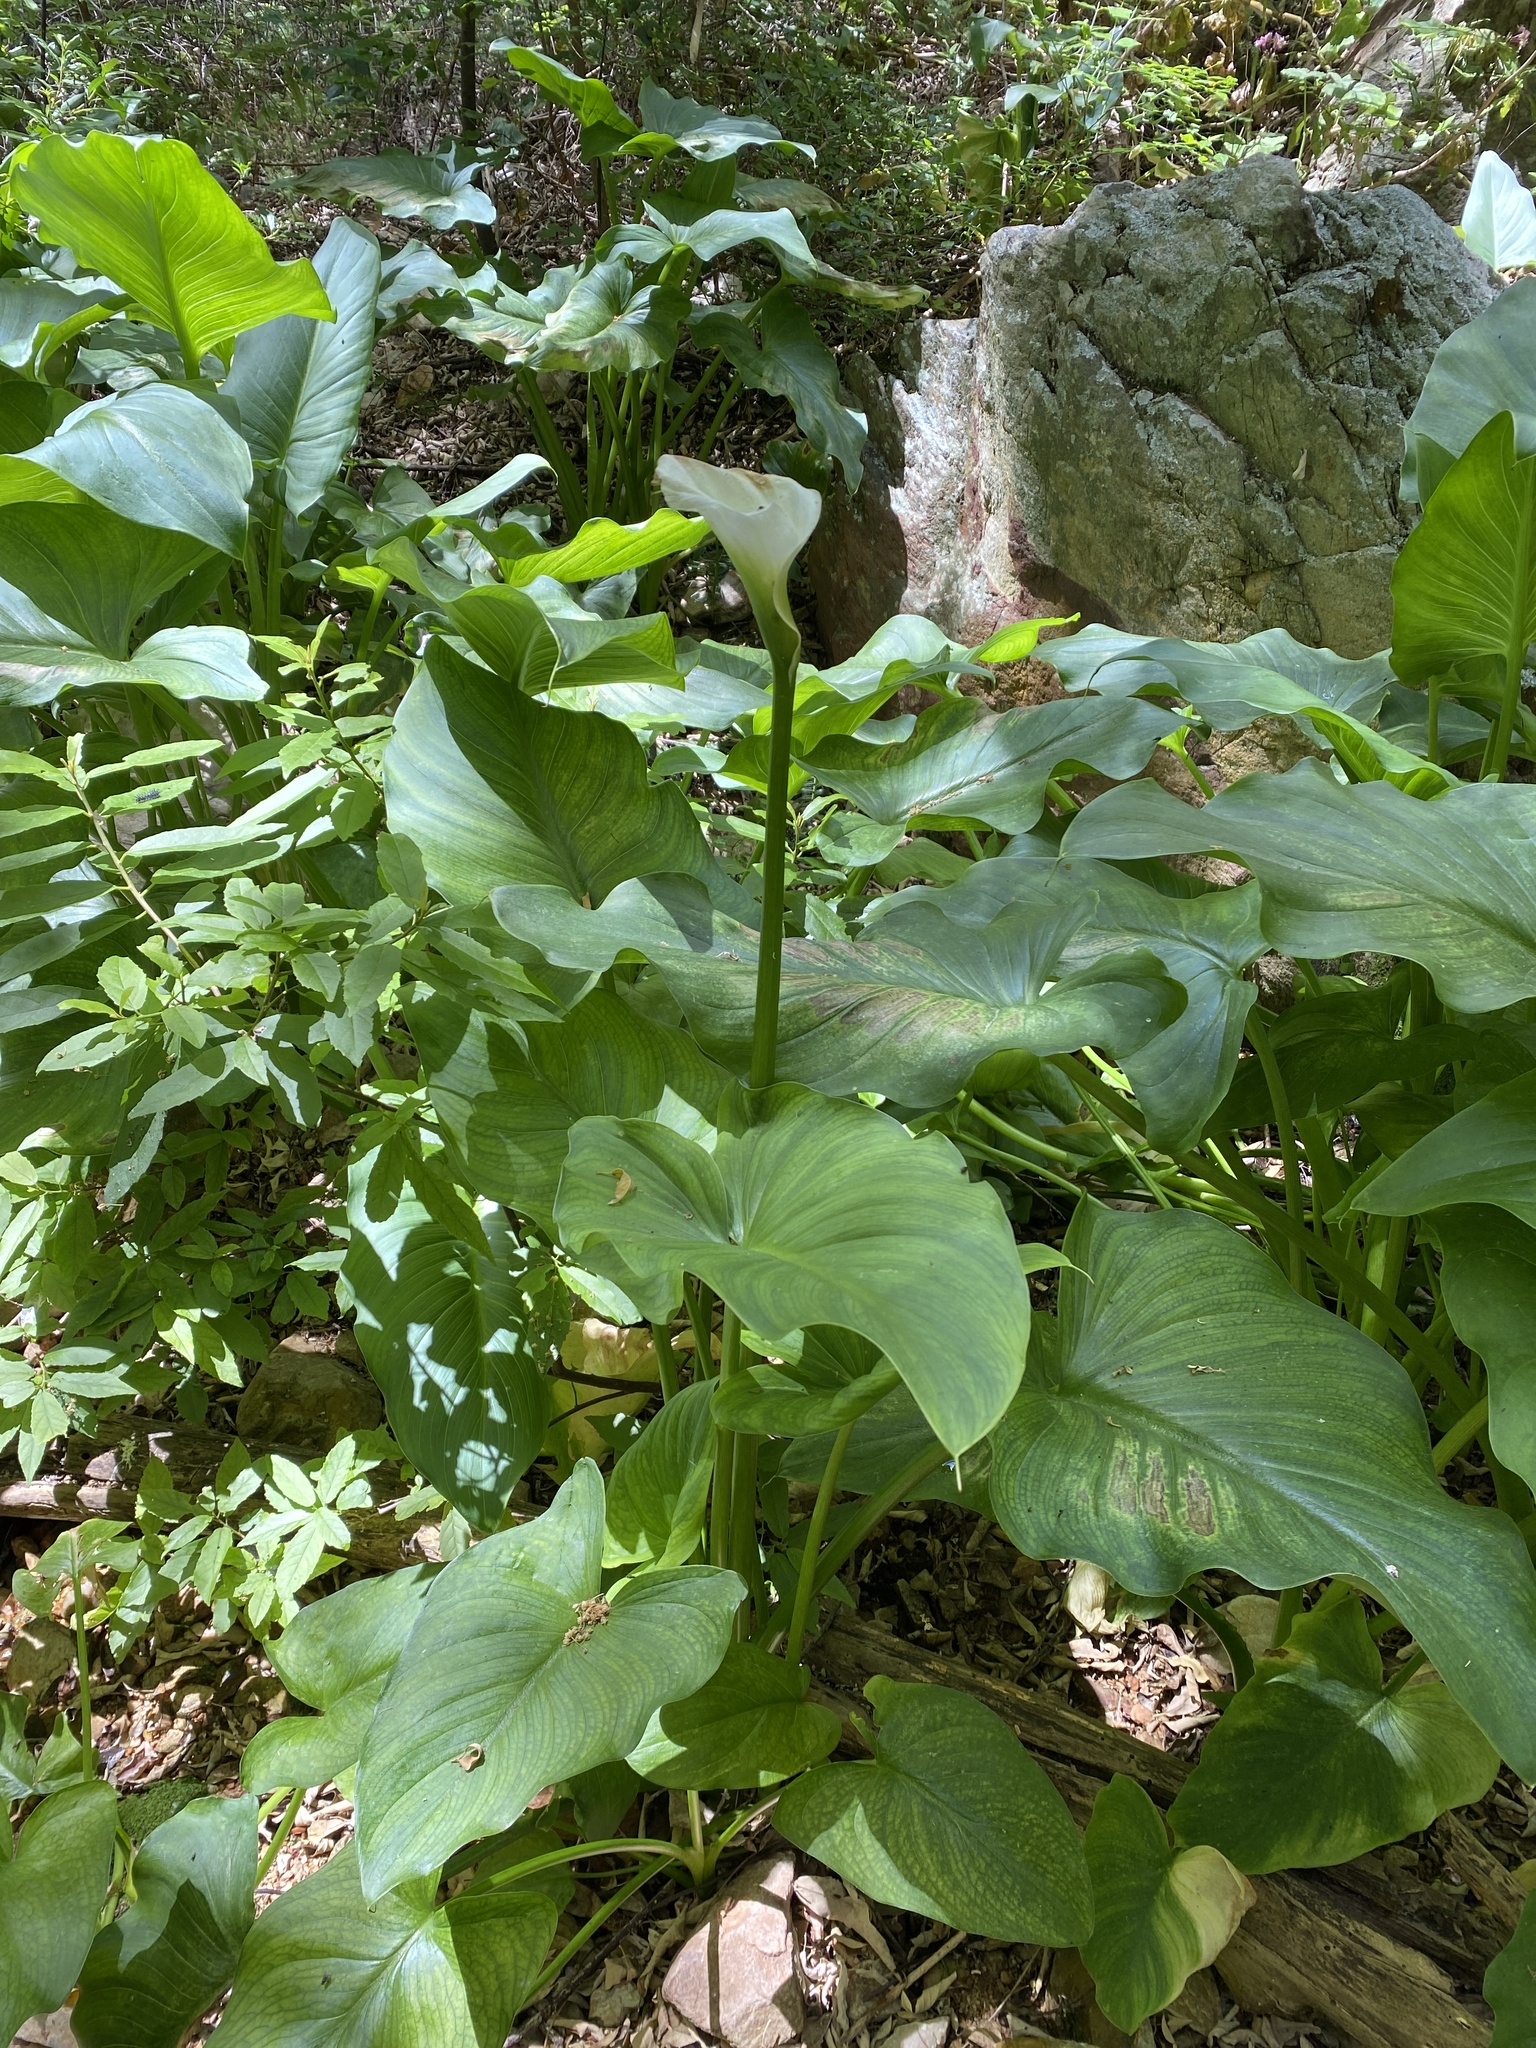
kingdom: Plantae
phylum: Tracheophyta
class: Liliopsida
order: Alismatales
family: Araceae
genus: Zantedeschia
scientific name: Zantedeschia aethiopica
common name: Altar-lily
